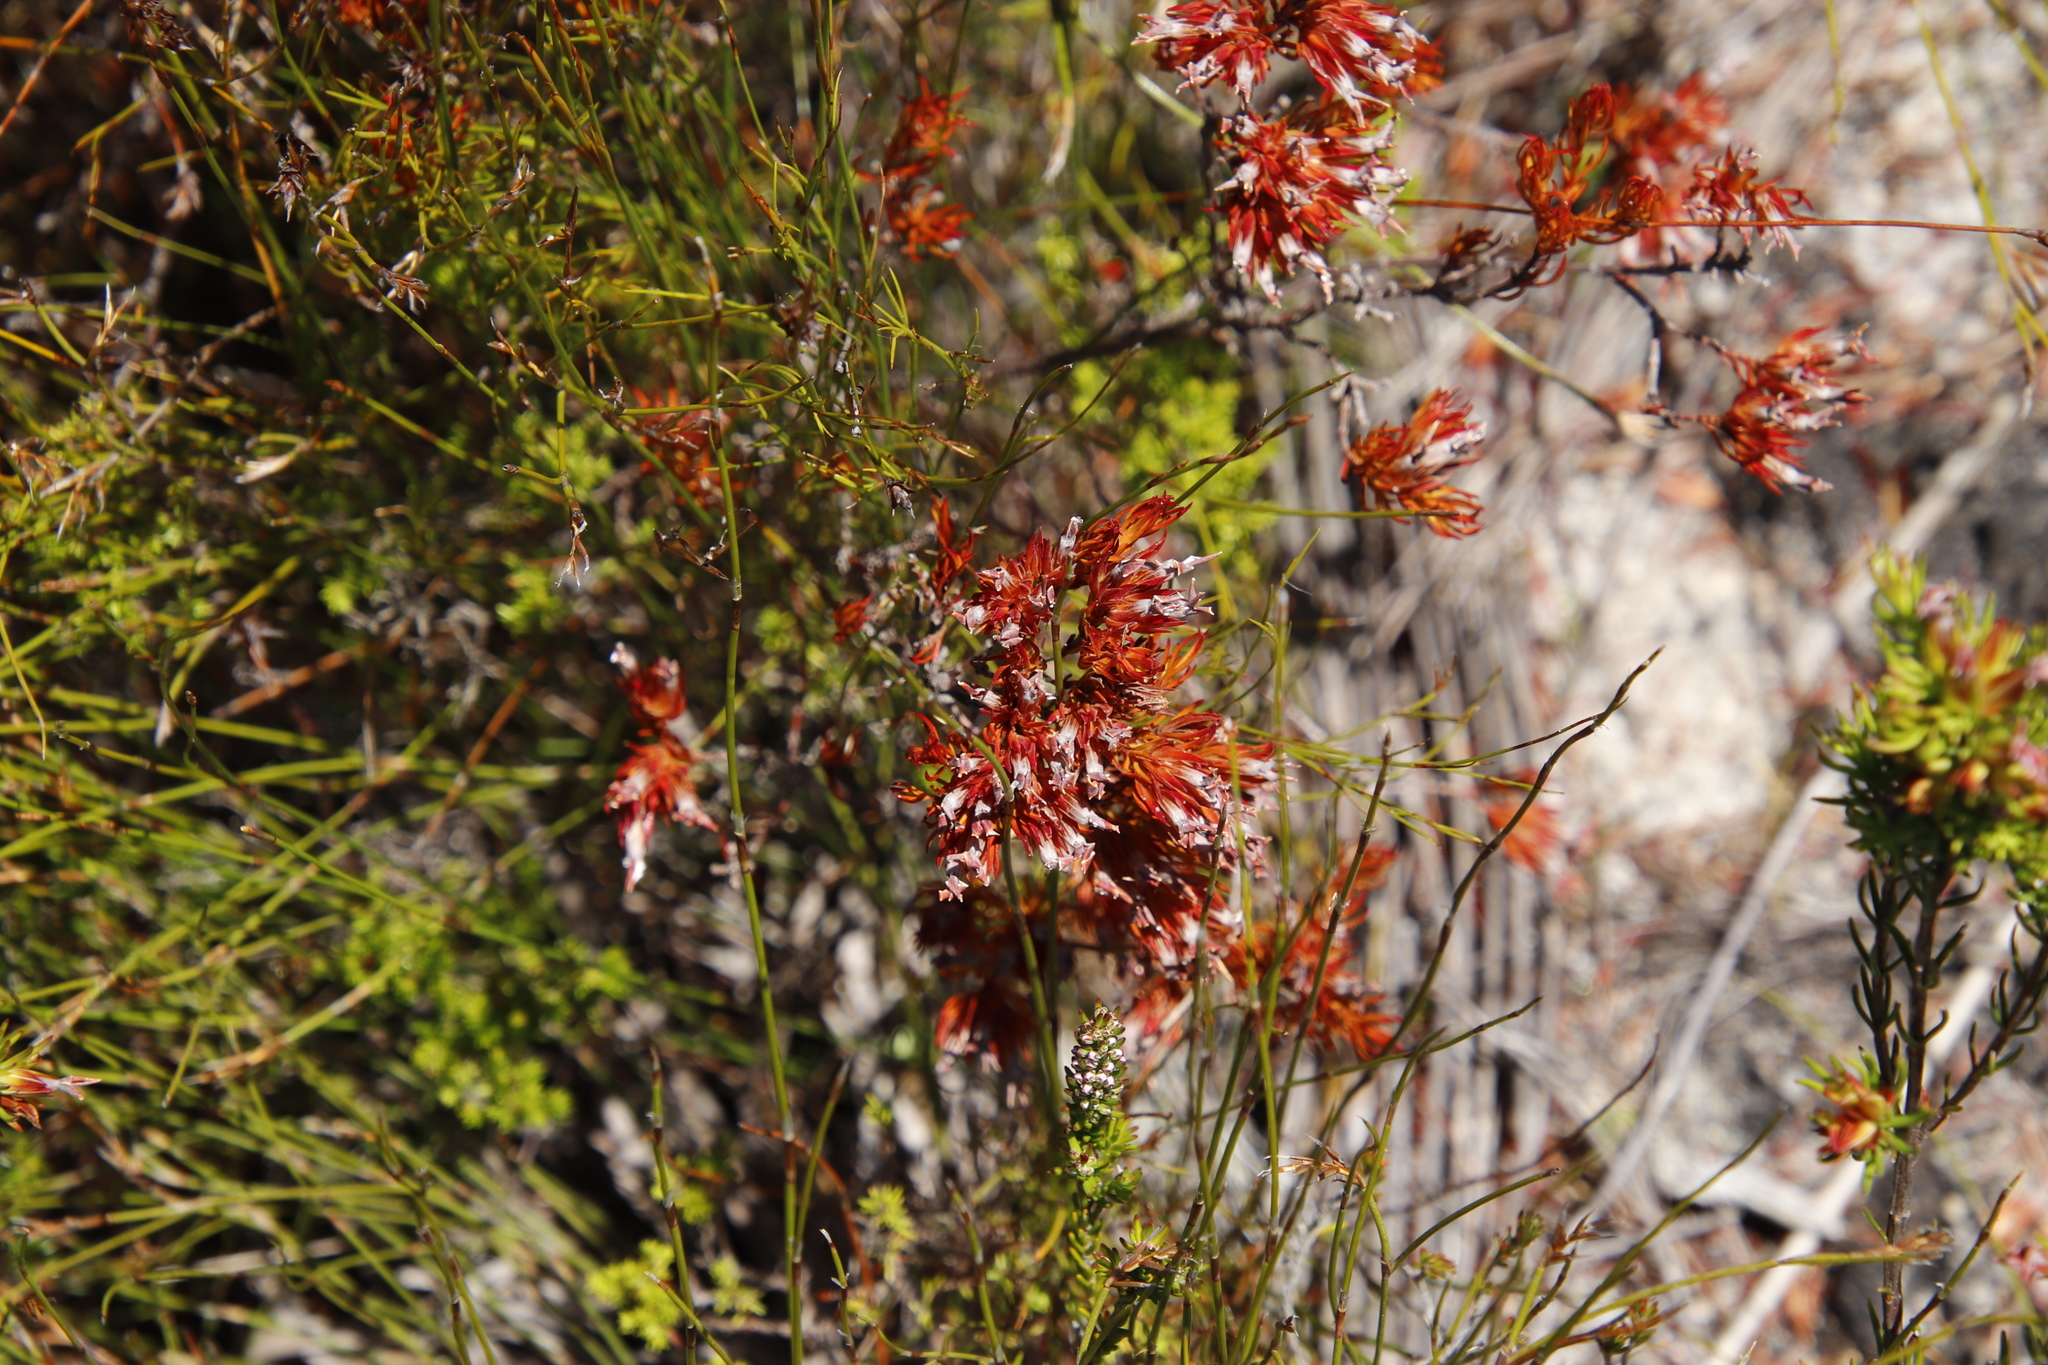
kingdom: Plantae
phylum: Tracheophyta
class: Magnoliopsida
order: Ericales
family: Ericaceae
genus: Erica
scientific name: Erica pycnantha
